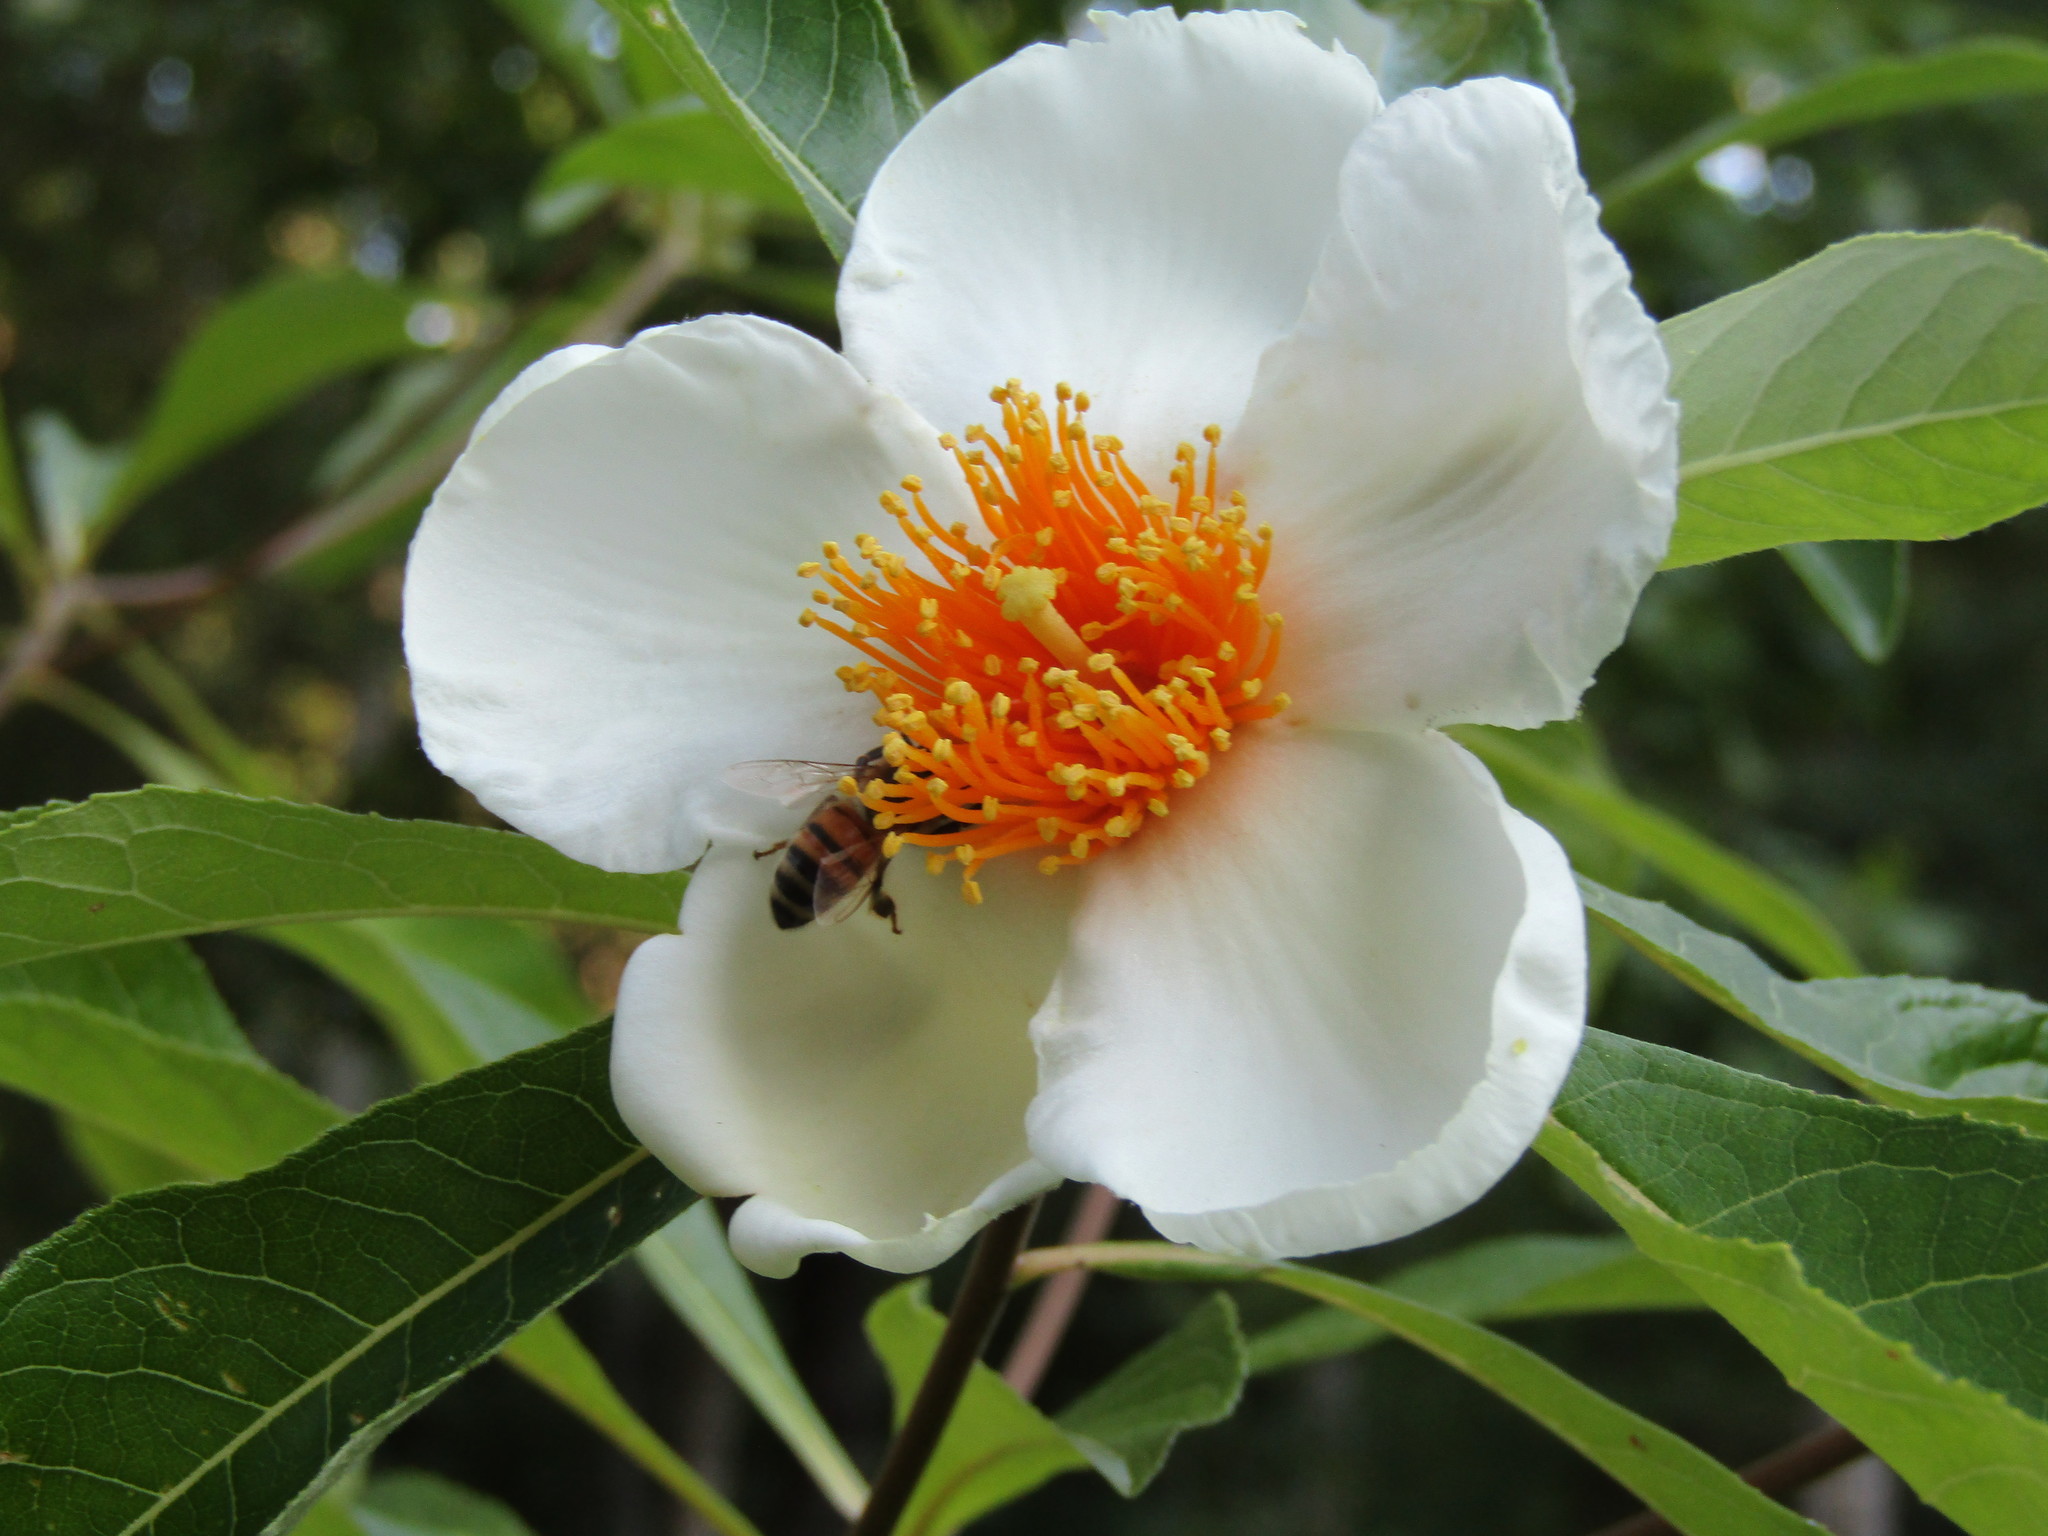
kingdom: Animalia
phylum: Arthropoda
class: Insecta
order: Hymenoptera
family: Apidae
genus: Apis
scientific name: Apis mellifera
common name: Honey bee
